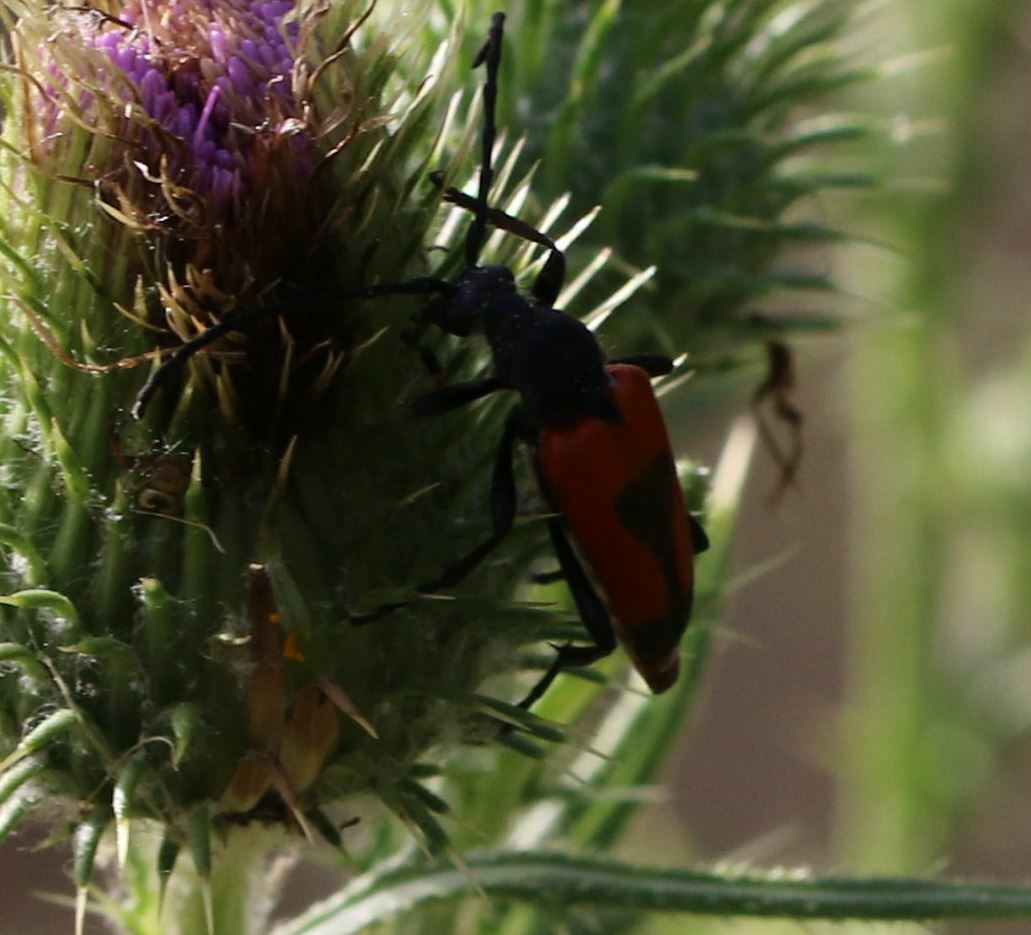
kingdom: Animalia
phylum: Arthropoda
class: Insecta
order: Coleoptera
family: Cerambycidae
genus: Stictoleptura
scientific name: Stictoleptura cordigera
